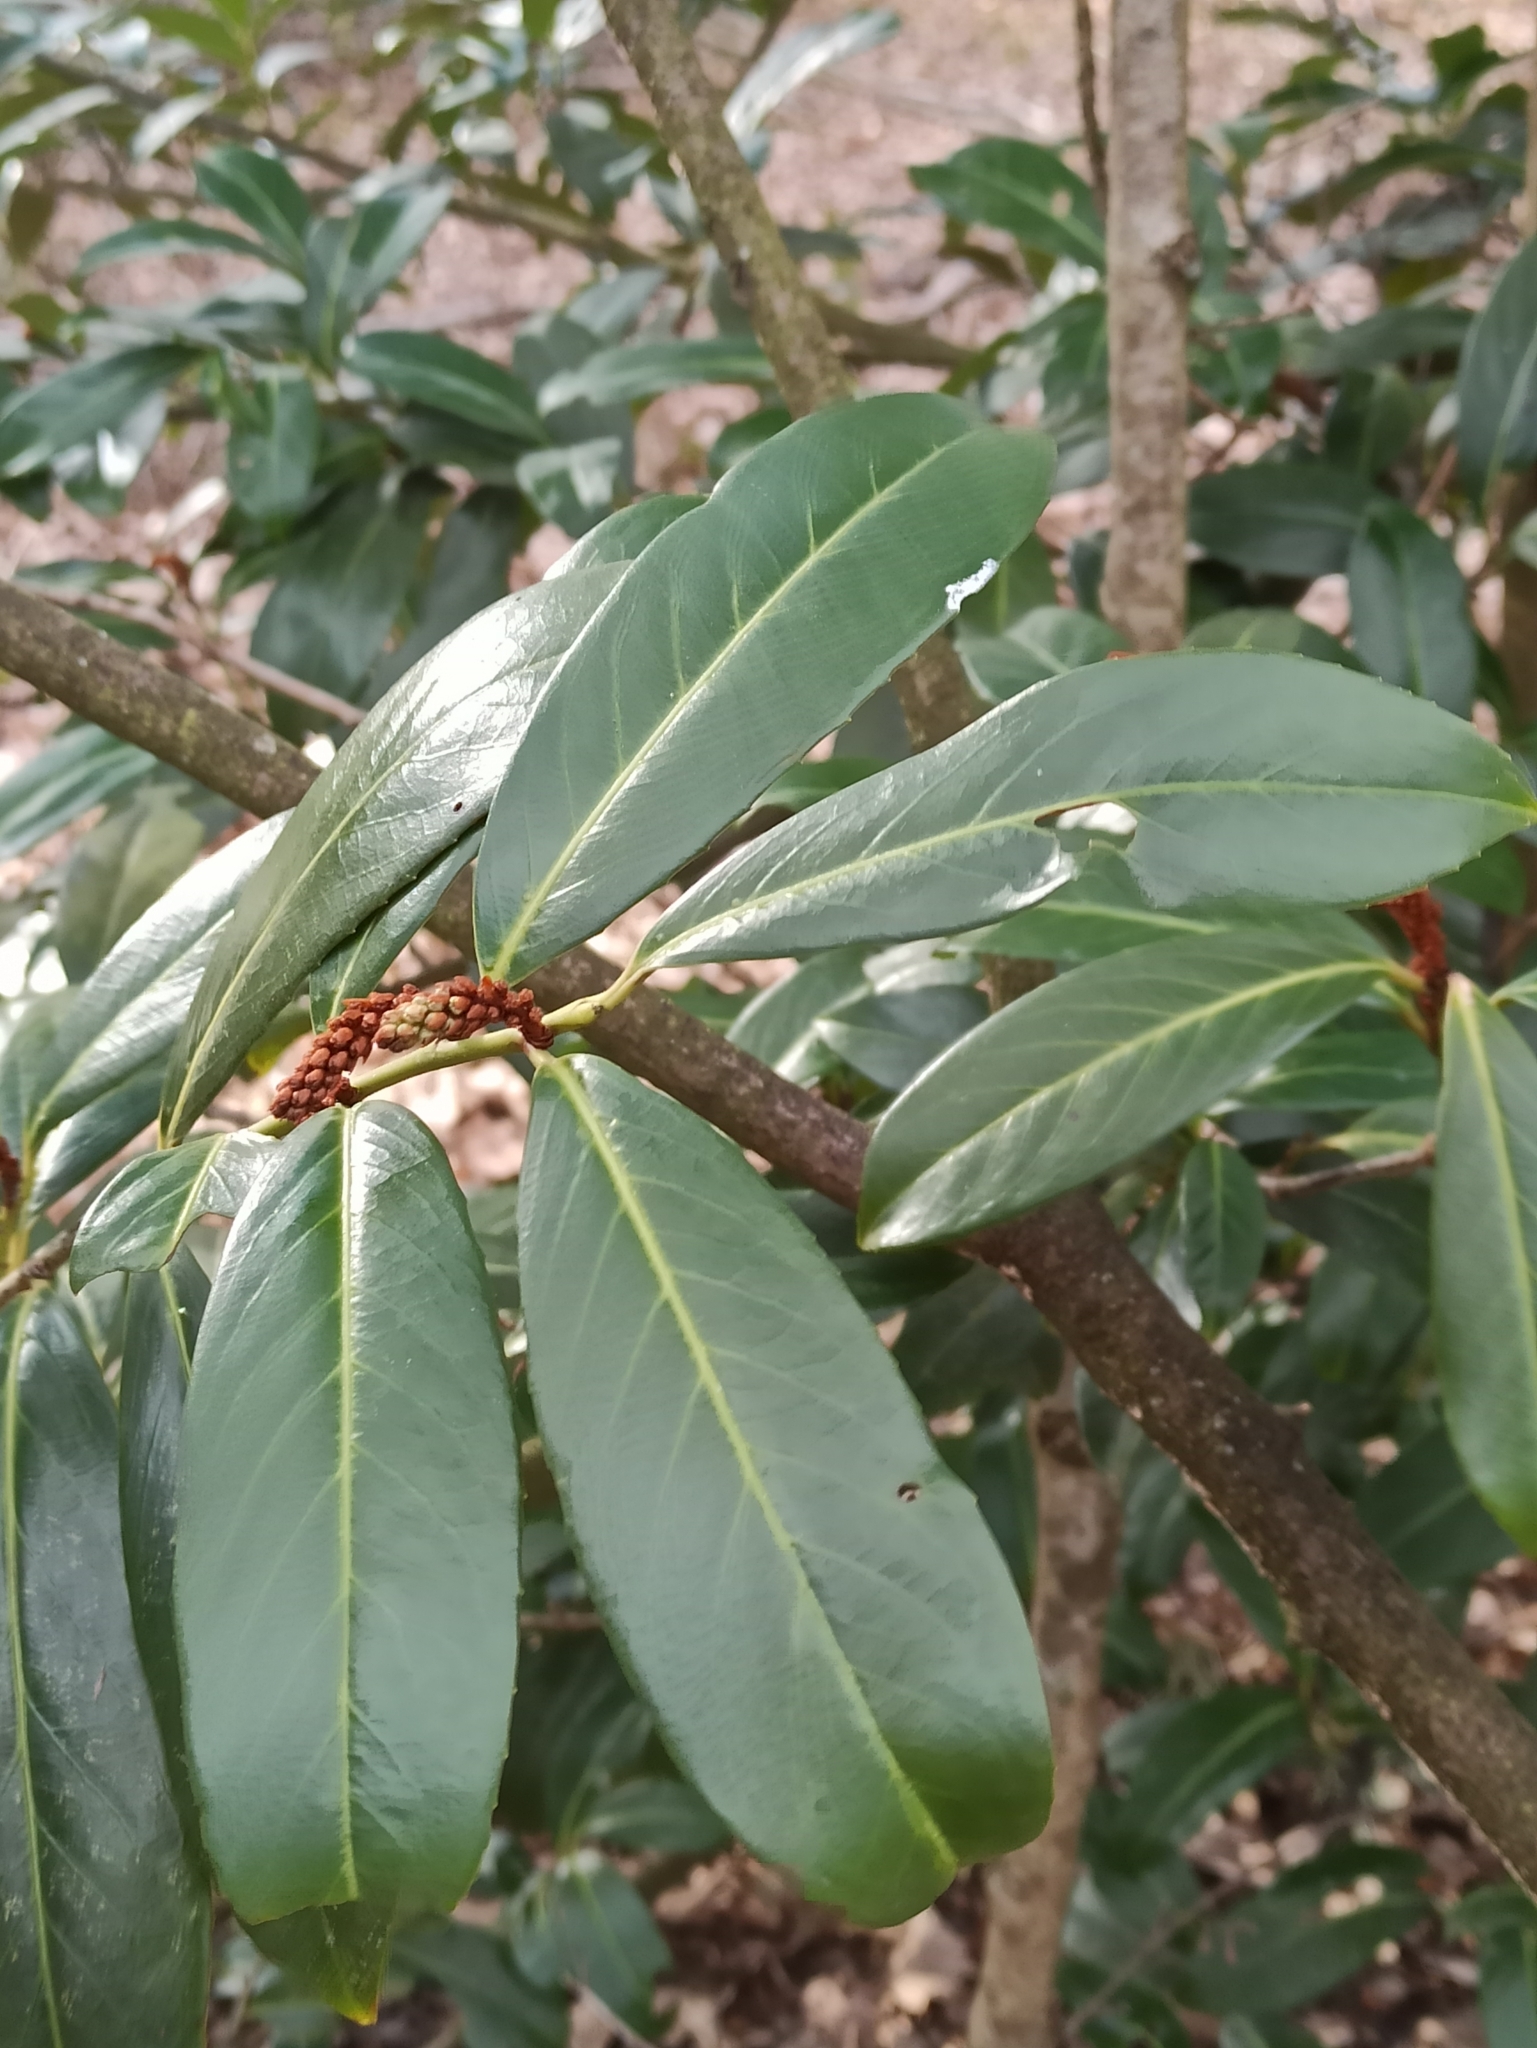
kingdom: Plantae
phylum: Tracheophyta
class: Magnoliopsida
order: Rosales
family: Rosaceae
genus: Prunus
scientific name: Prunus laurocerasus
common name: Cherry laurel
